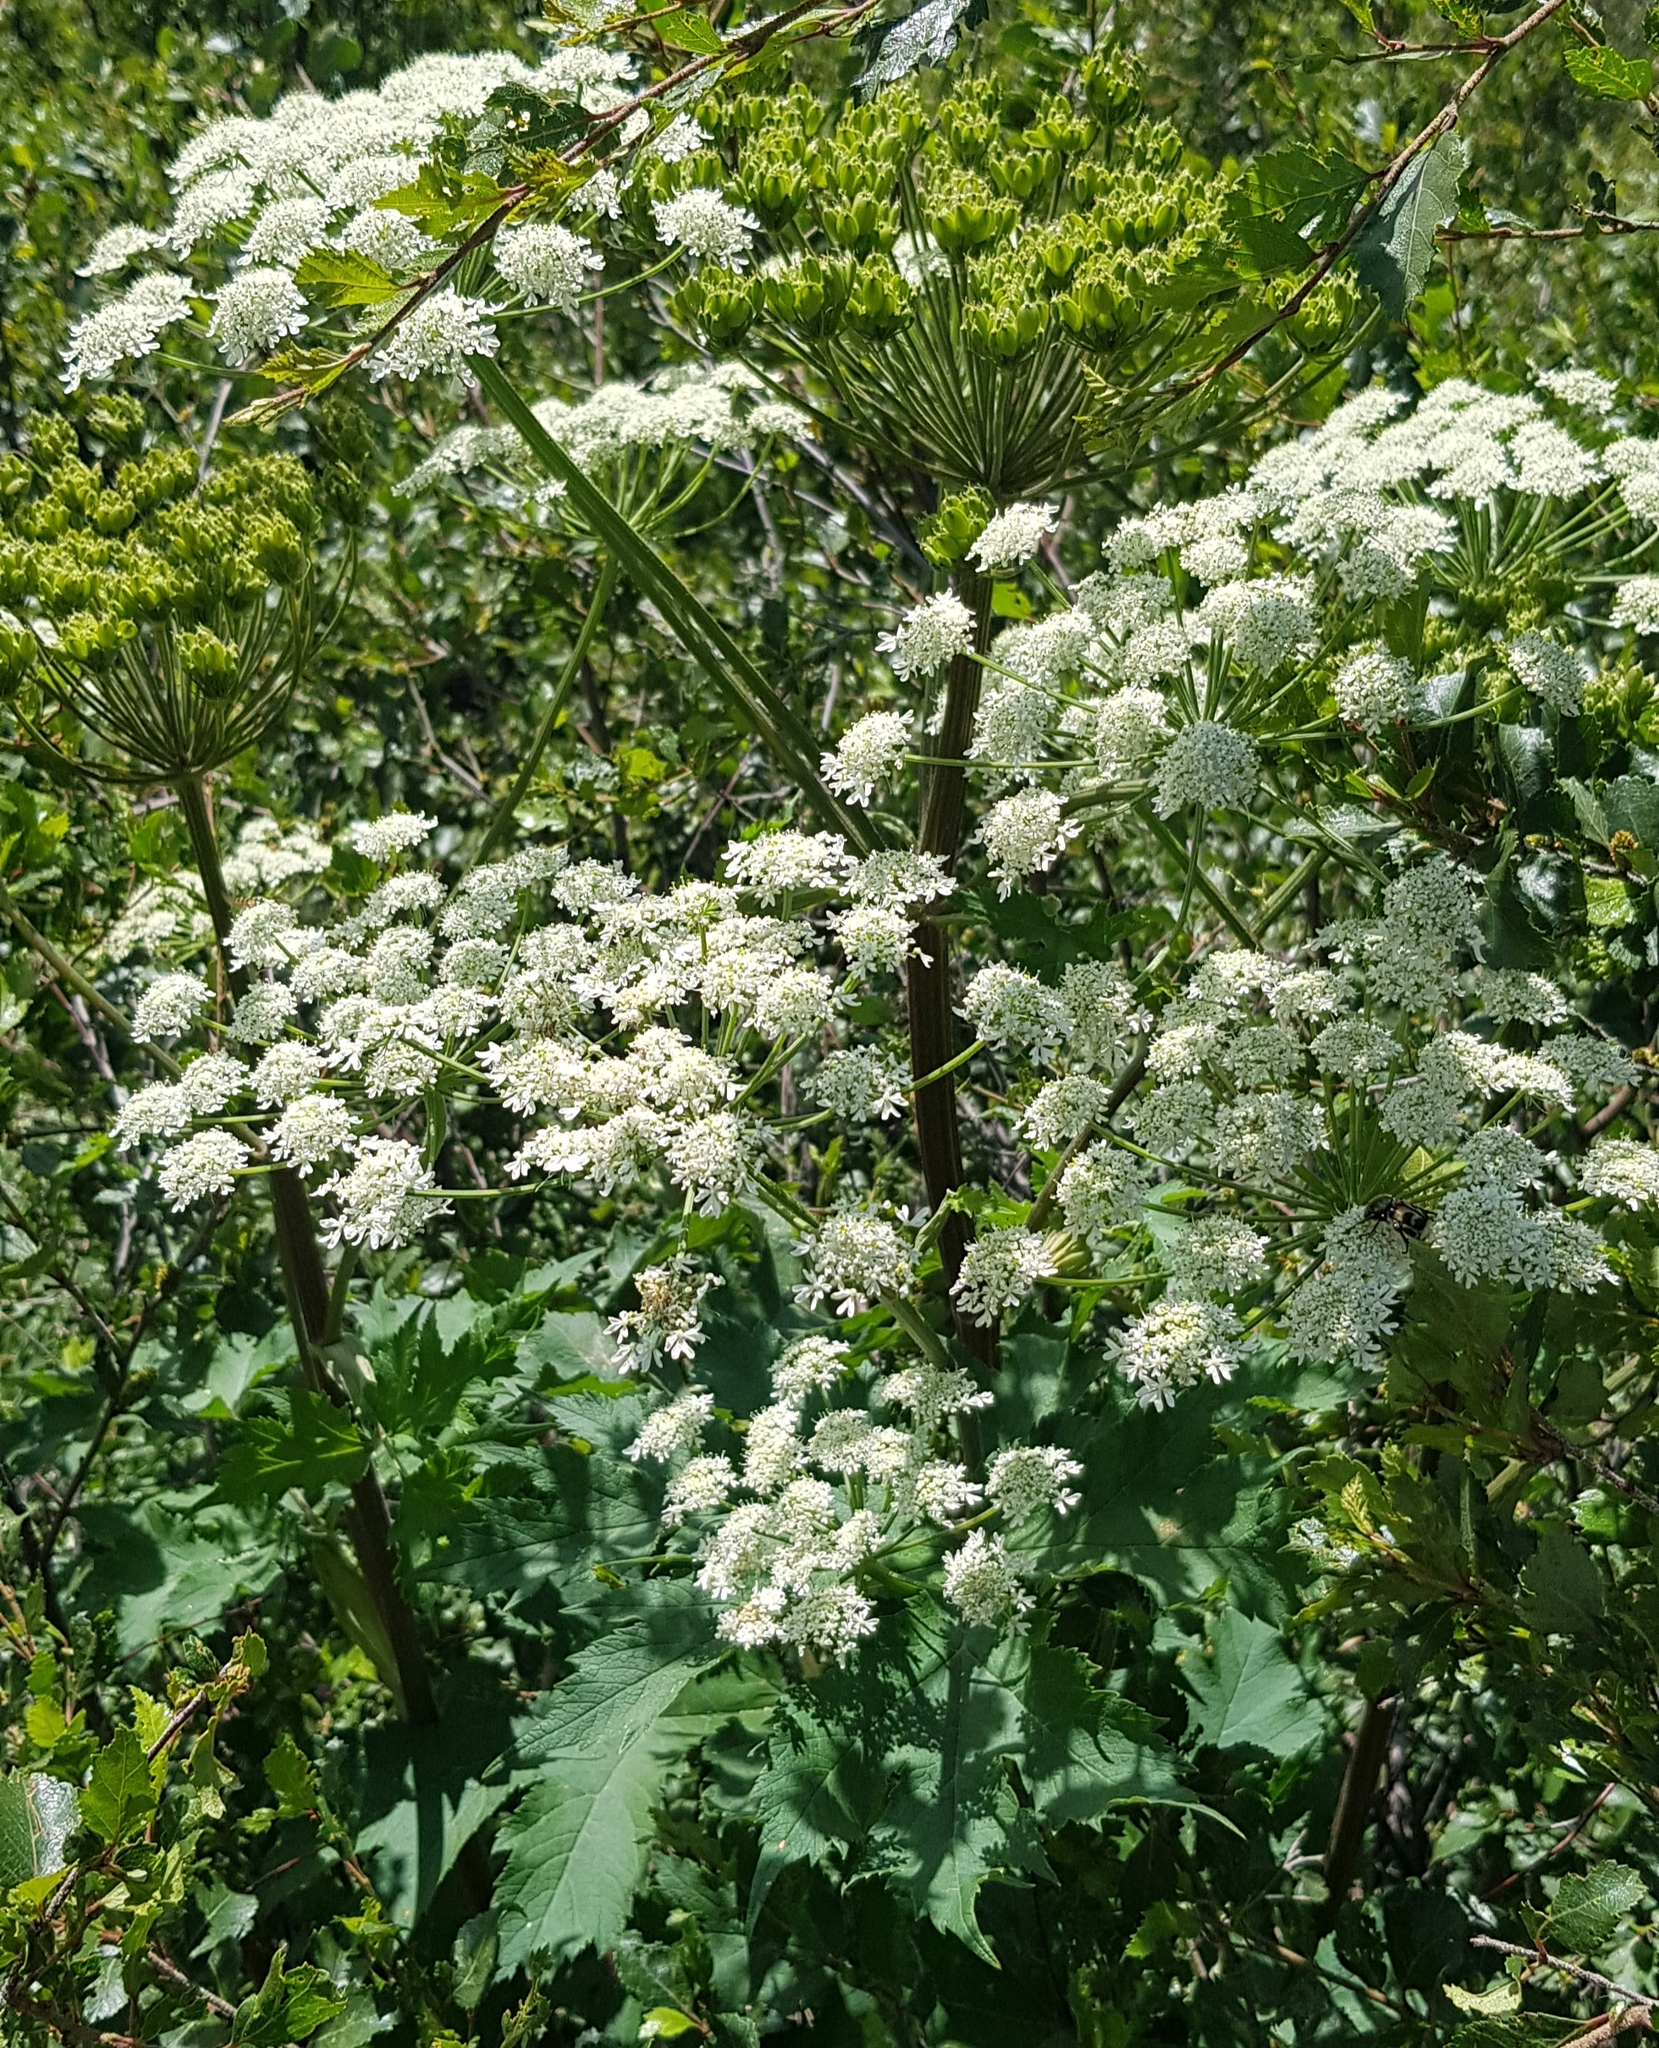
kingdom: Plantae
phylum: Tracheophyta
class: Magnoliopsida
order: Apiales
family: Apiaceae
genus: Heracleum
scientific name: Heracleum dissectum
